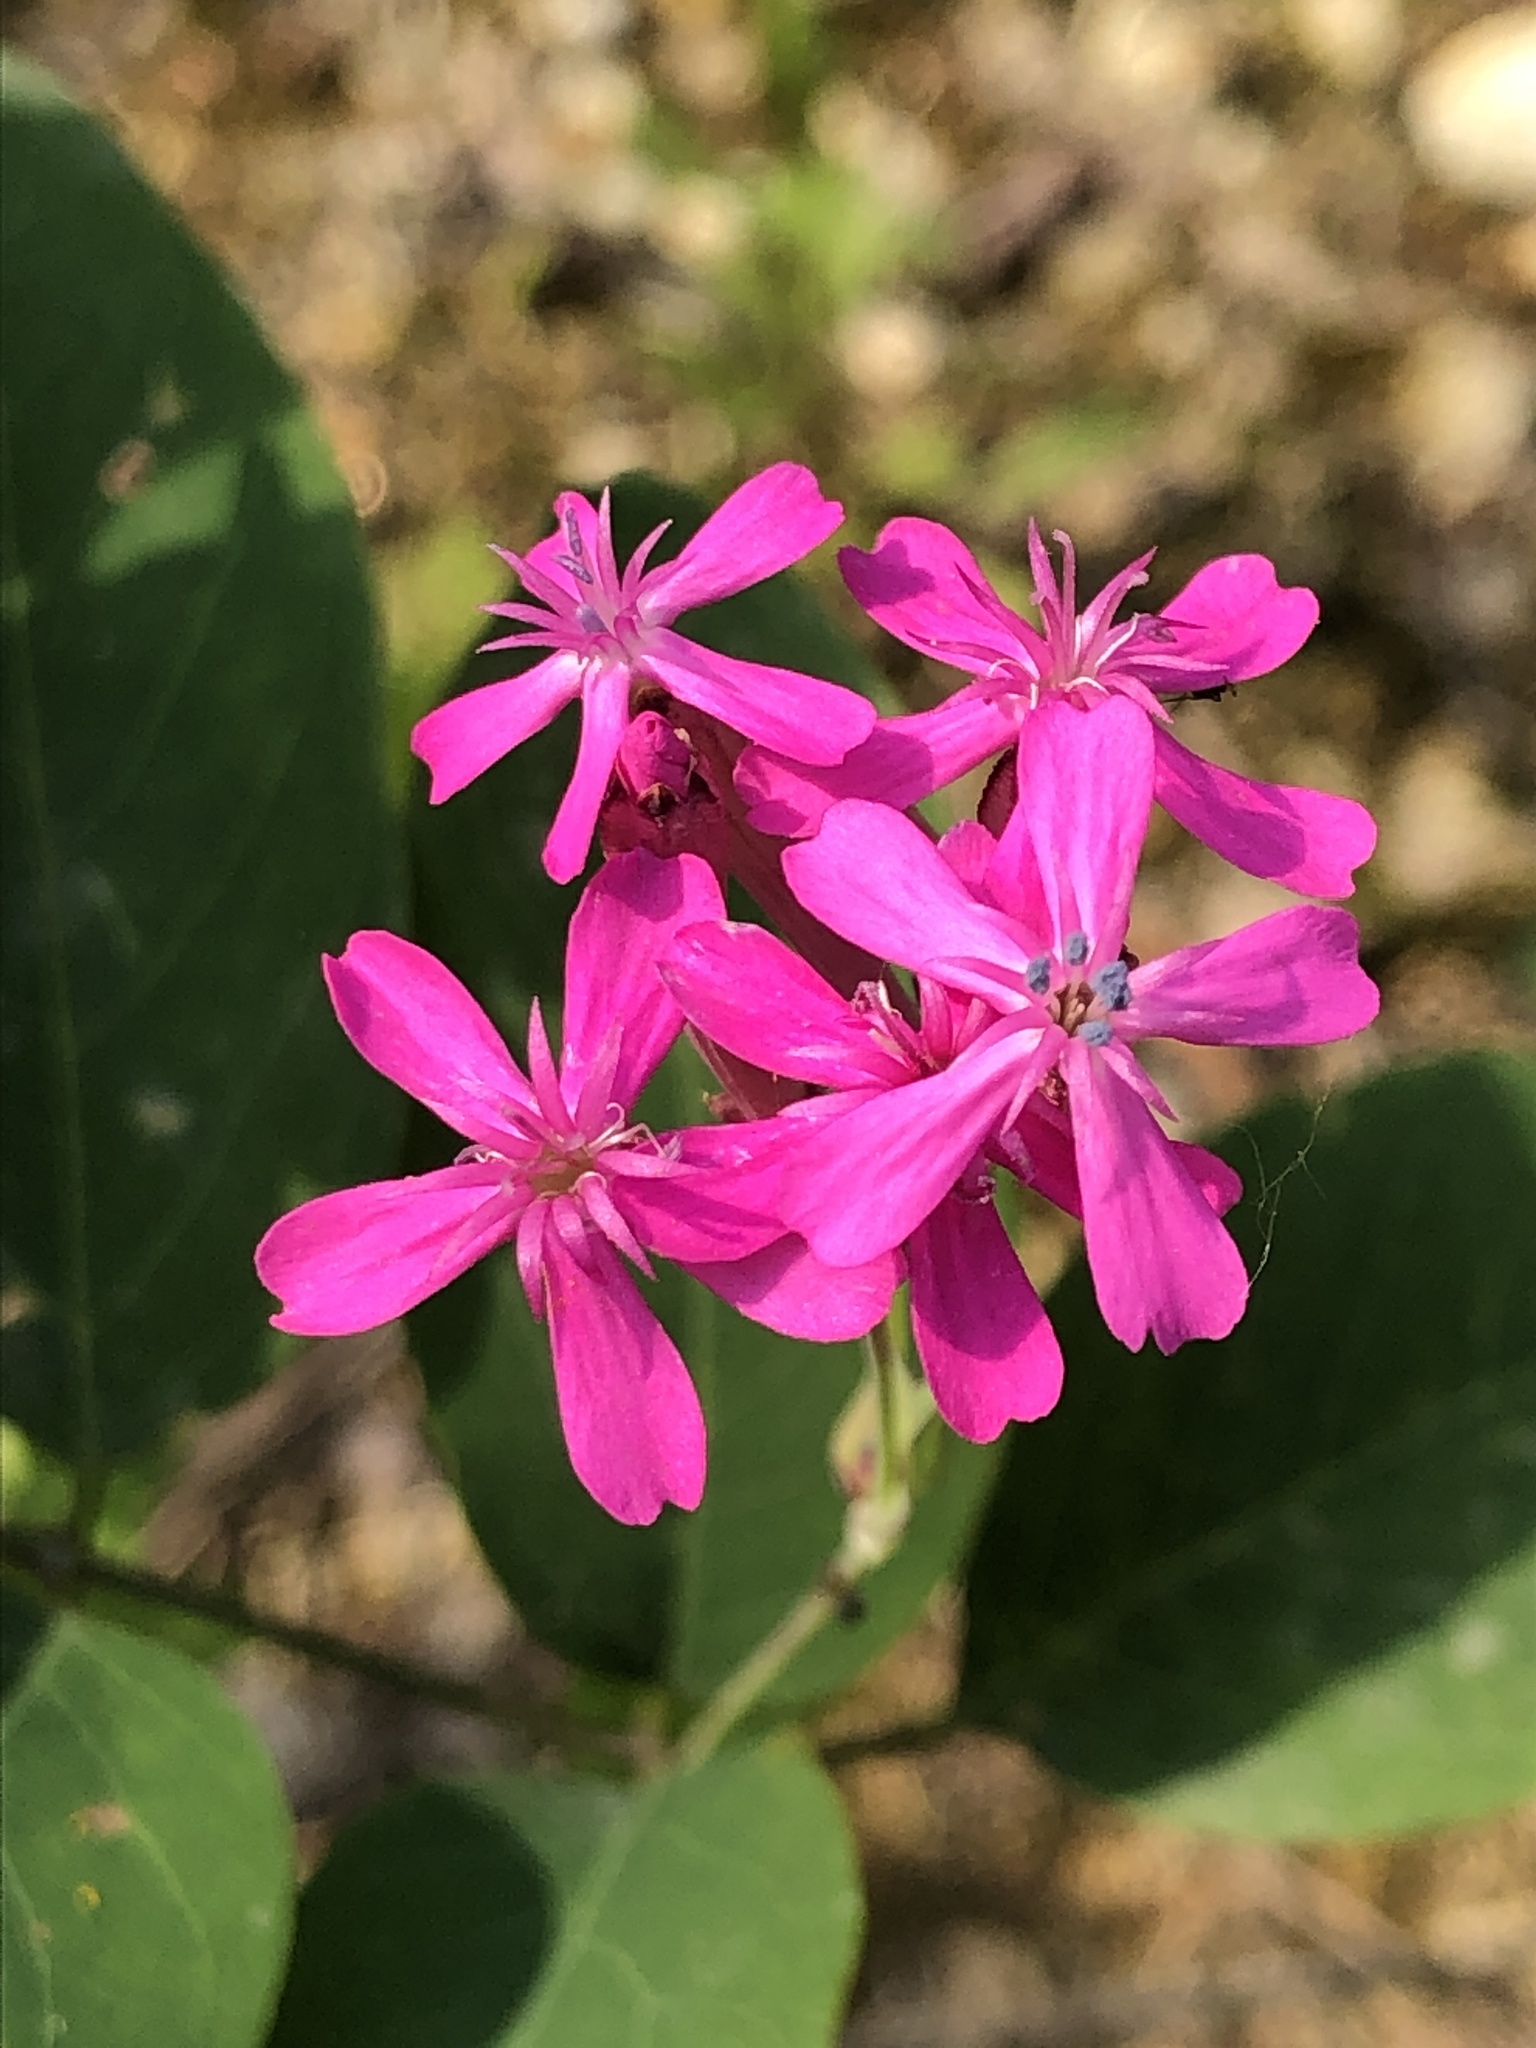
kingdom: Plantae
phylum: Tracheophyta
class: Magnoliopsida
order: Caryophyllales
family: Caryophyllaceae
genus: Atocion
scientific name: Atocion armeria
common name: Sweet william catchfly
